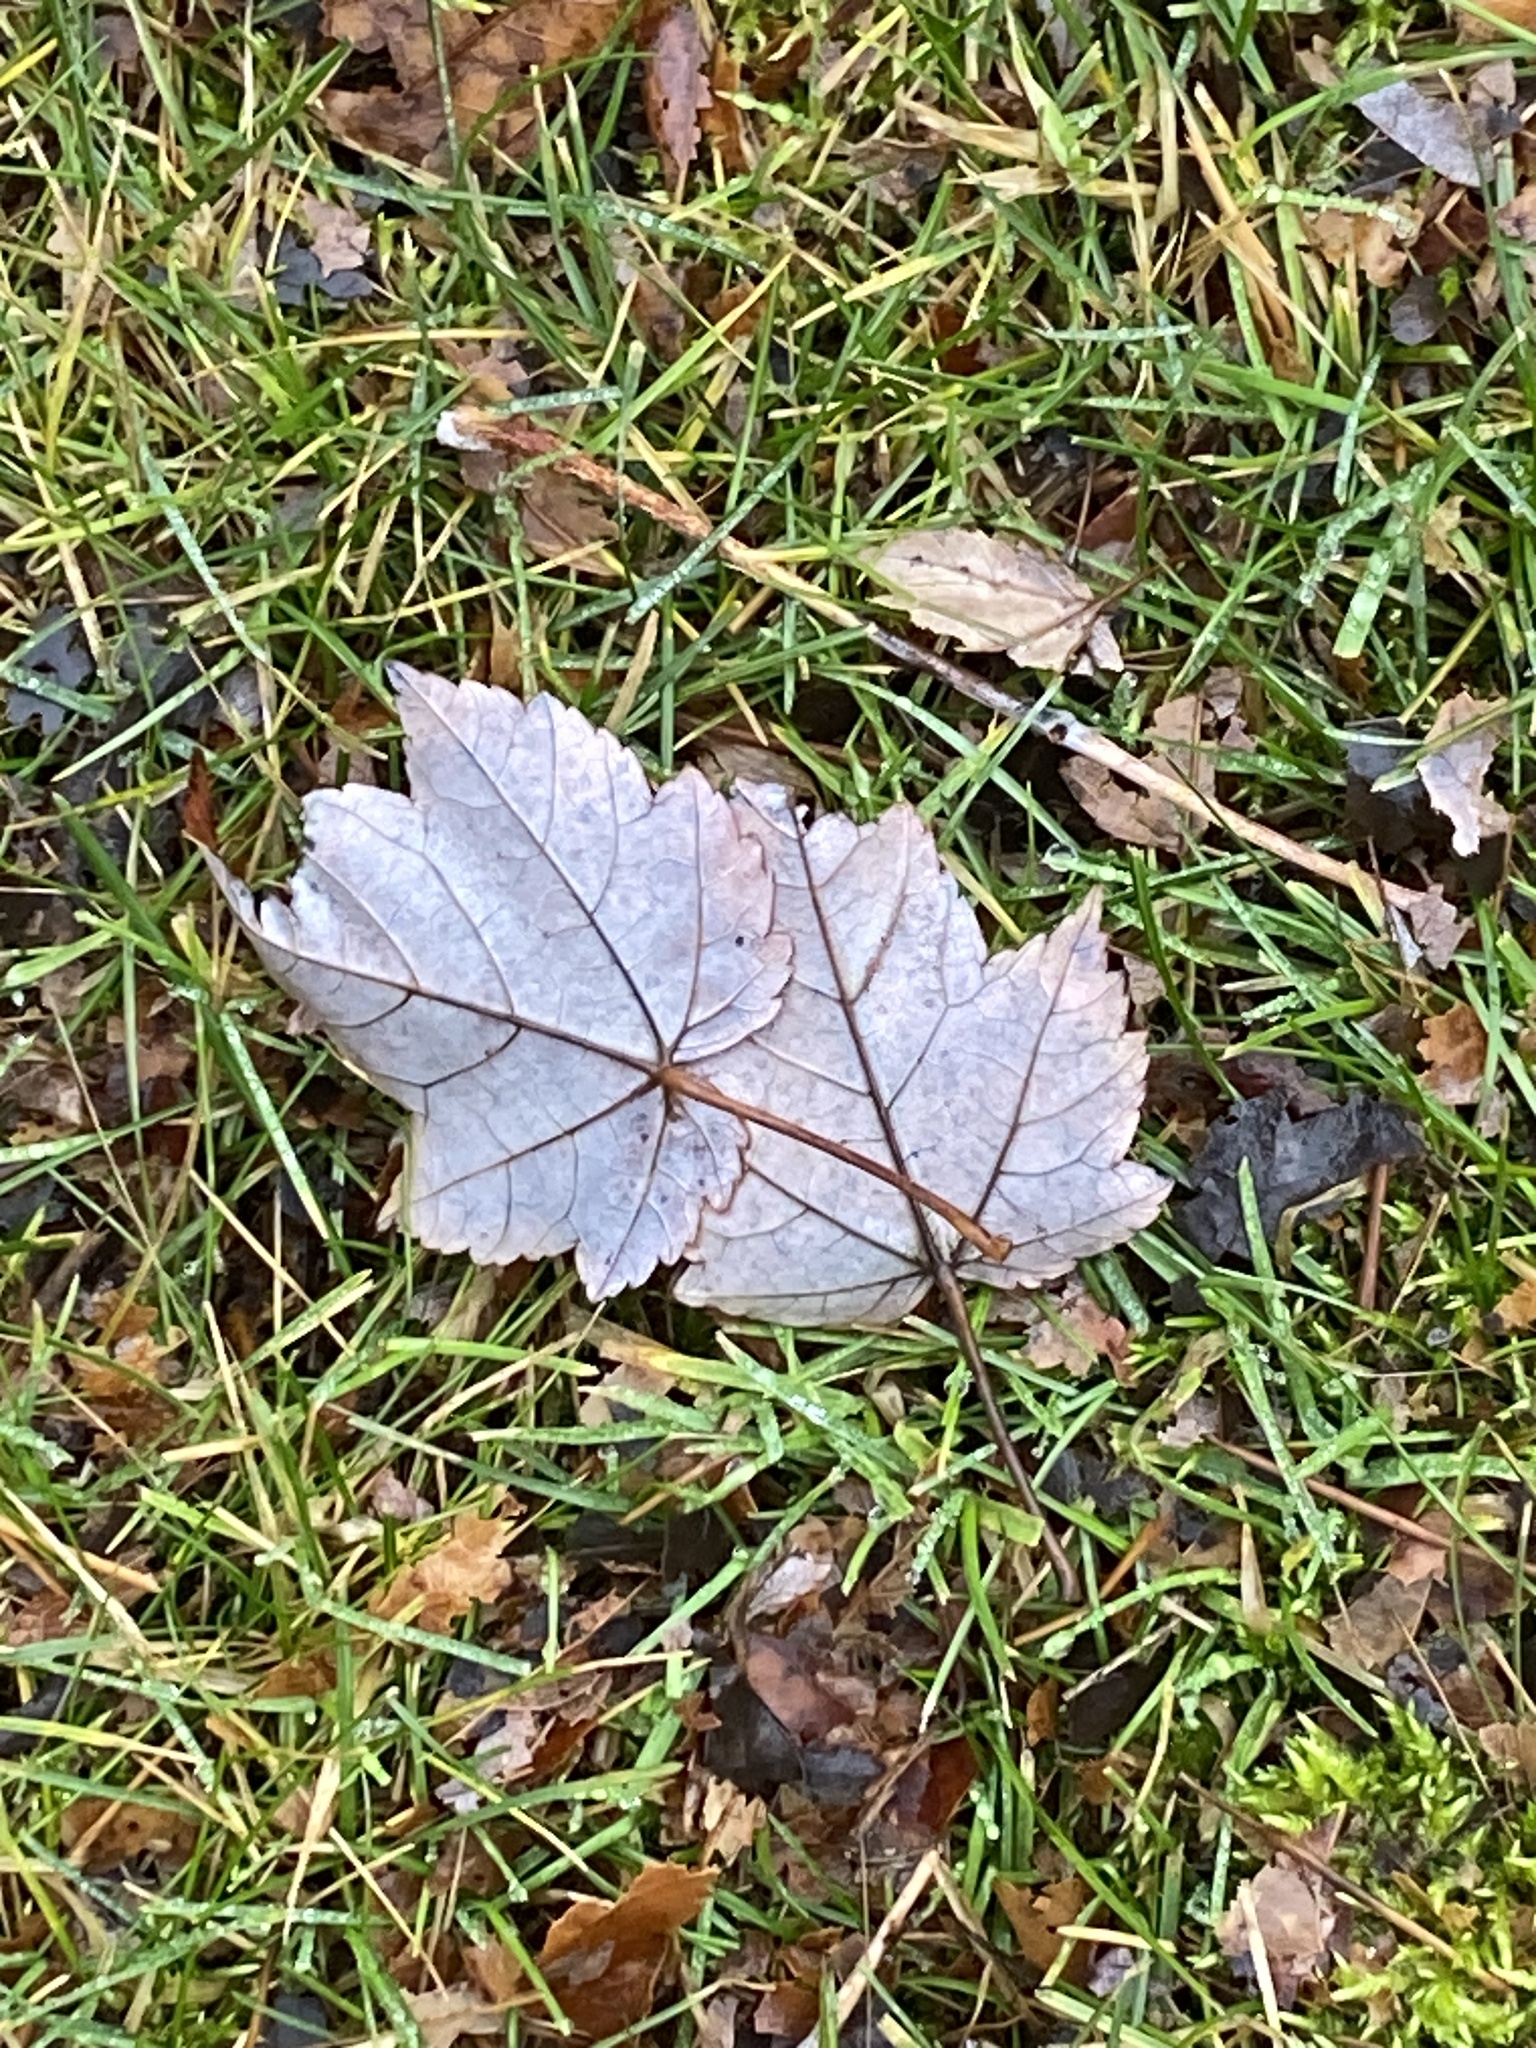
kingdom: Plantae
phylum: Tracheophyta
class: Magnoliopsida
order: Sapindales
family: Sapindaceae
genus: Acer
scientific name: Acer rubrum
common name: Red maple
